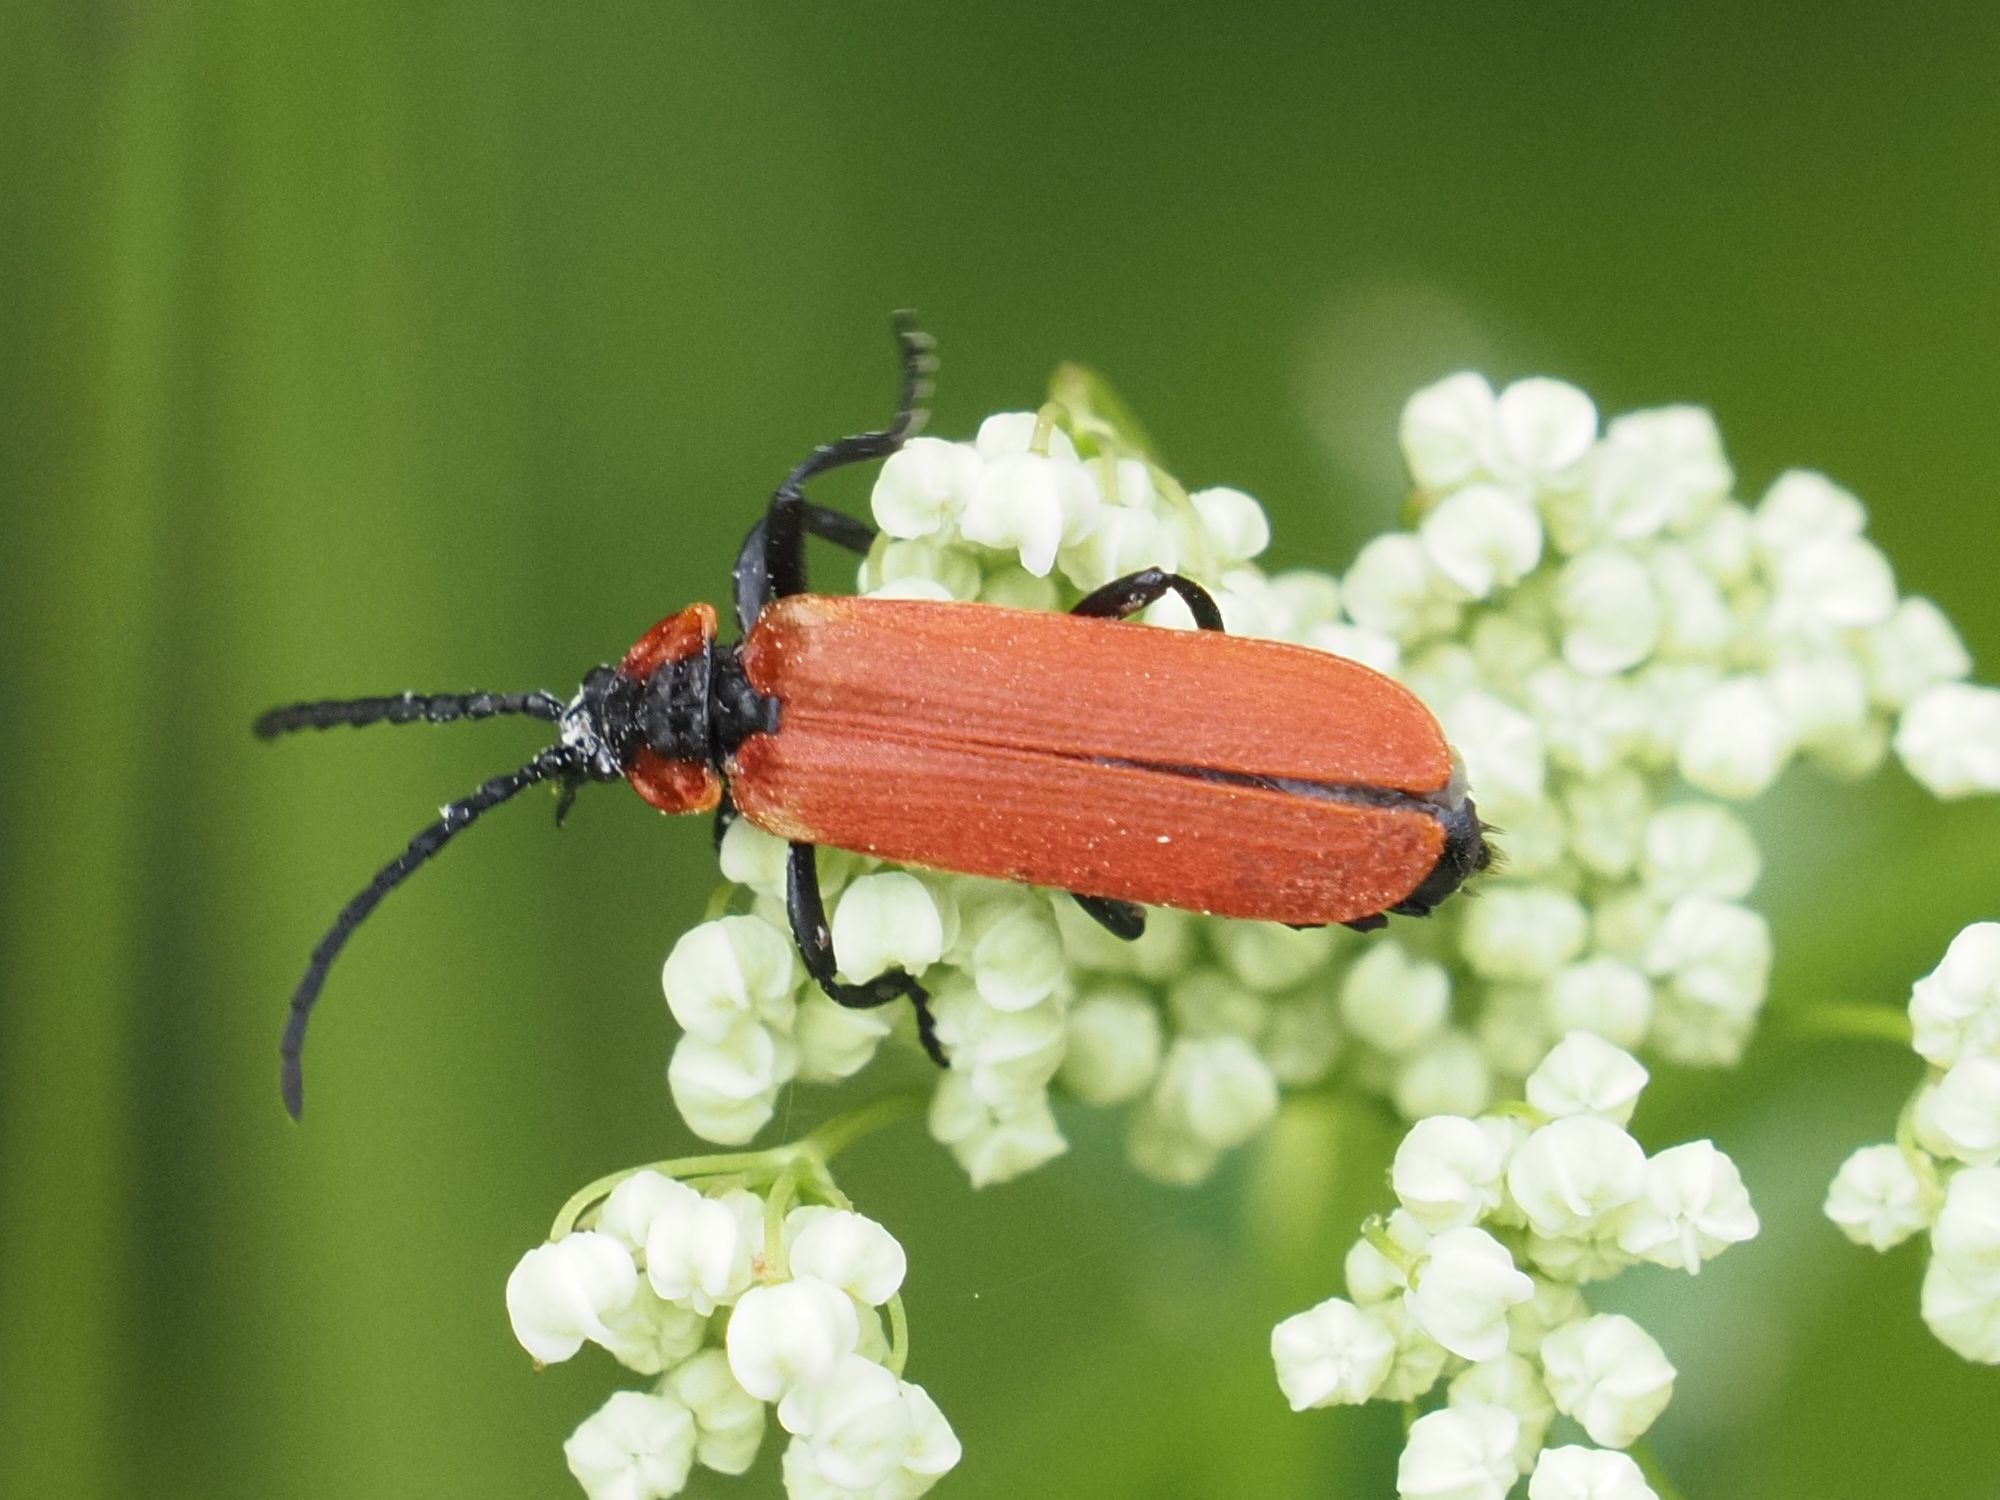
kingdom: Animalia
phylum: Arthropoda
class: Insecta
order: Coleoptera
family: Lycidae
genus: Lygistopterus
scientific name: Lygistopterus sanguineus
